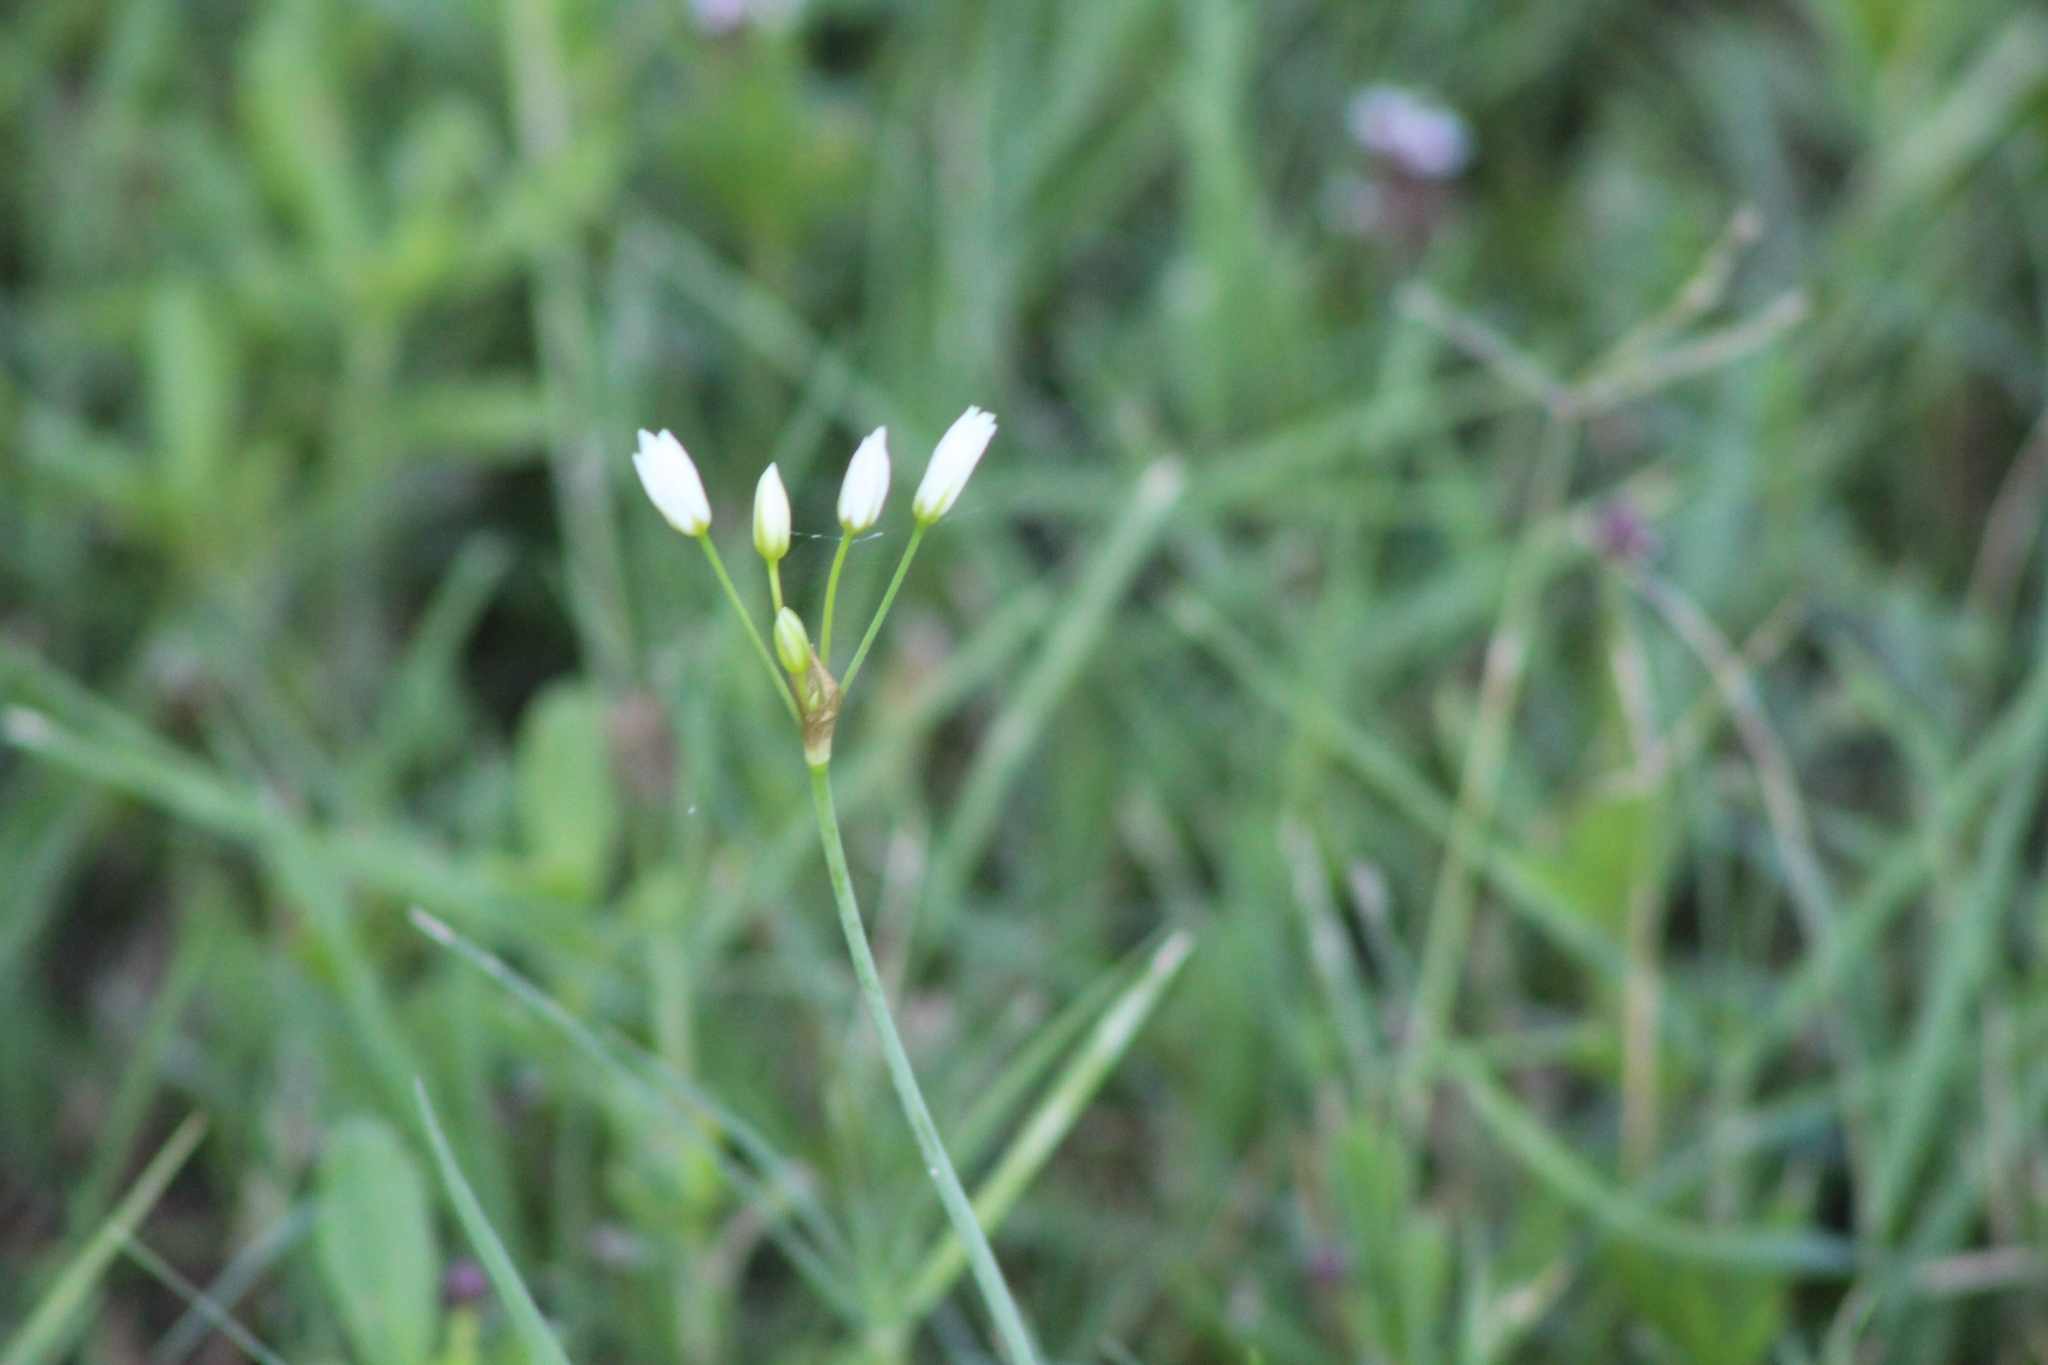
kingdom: Plantae
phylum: Tracheophyta
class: Liliopsida
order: Asparagales
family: Amaryllidaceae
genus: Nothoscordum
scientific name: Nothoscordum bivalve
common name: Crow-poison
